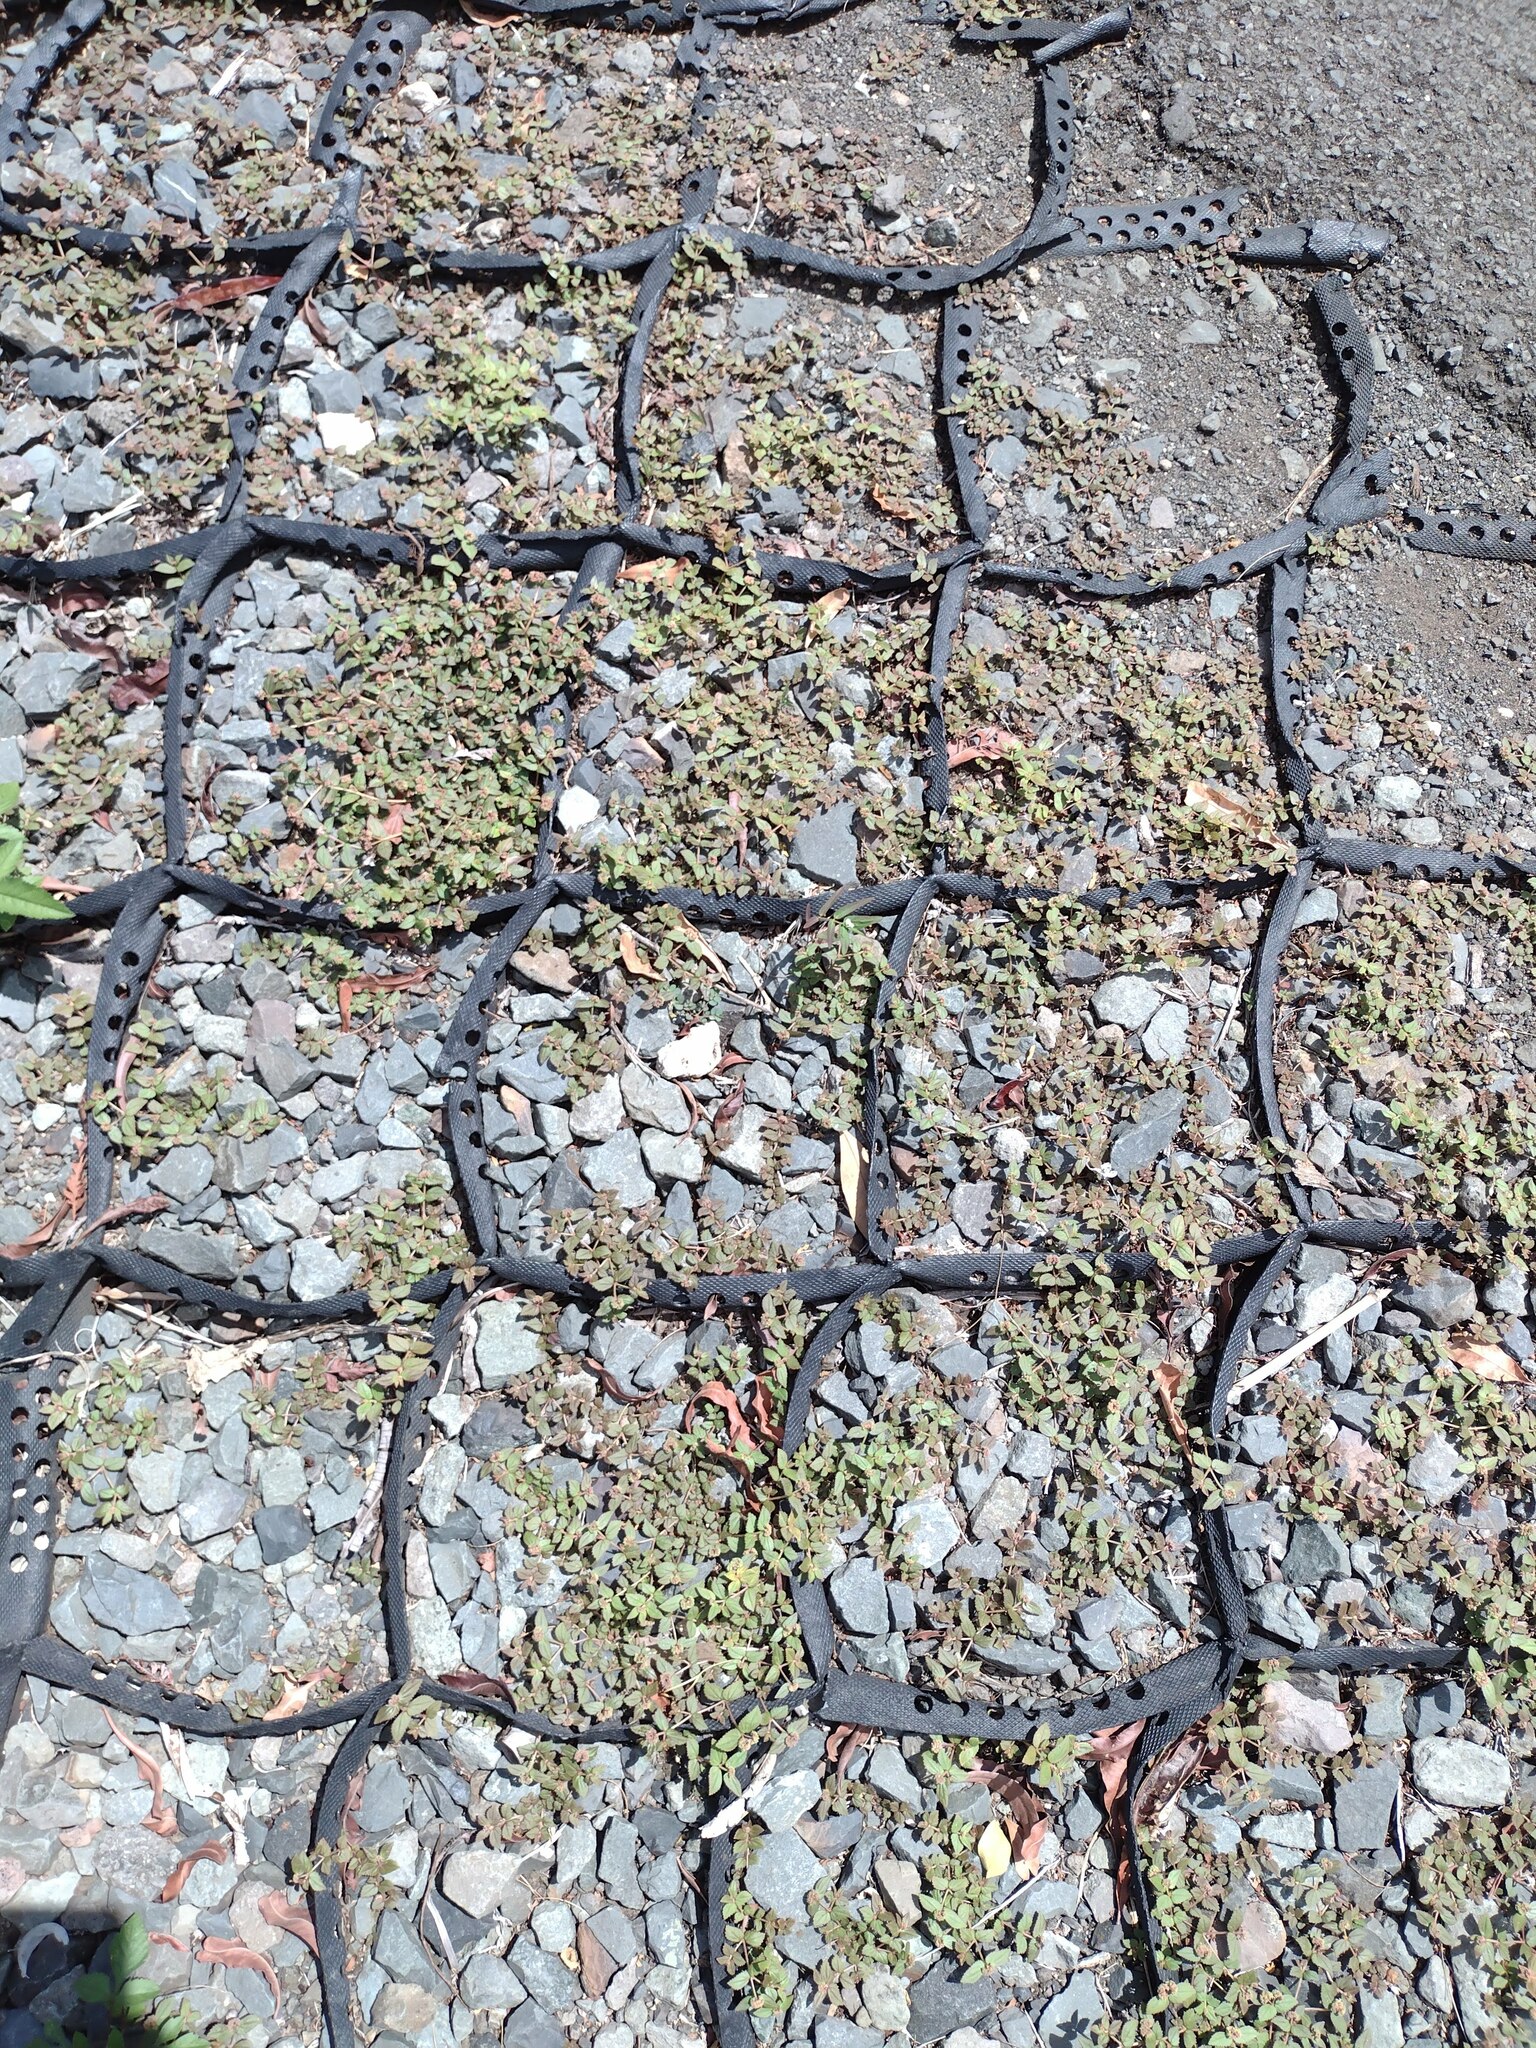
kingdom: Plantae
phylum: Tracheophyta
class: Magnoliopsida
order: Malpighiales
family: Euphorbiaceae
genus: Euphorbia
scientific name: Euphorbia ophthalmica
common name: Florida hammock sandmat
